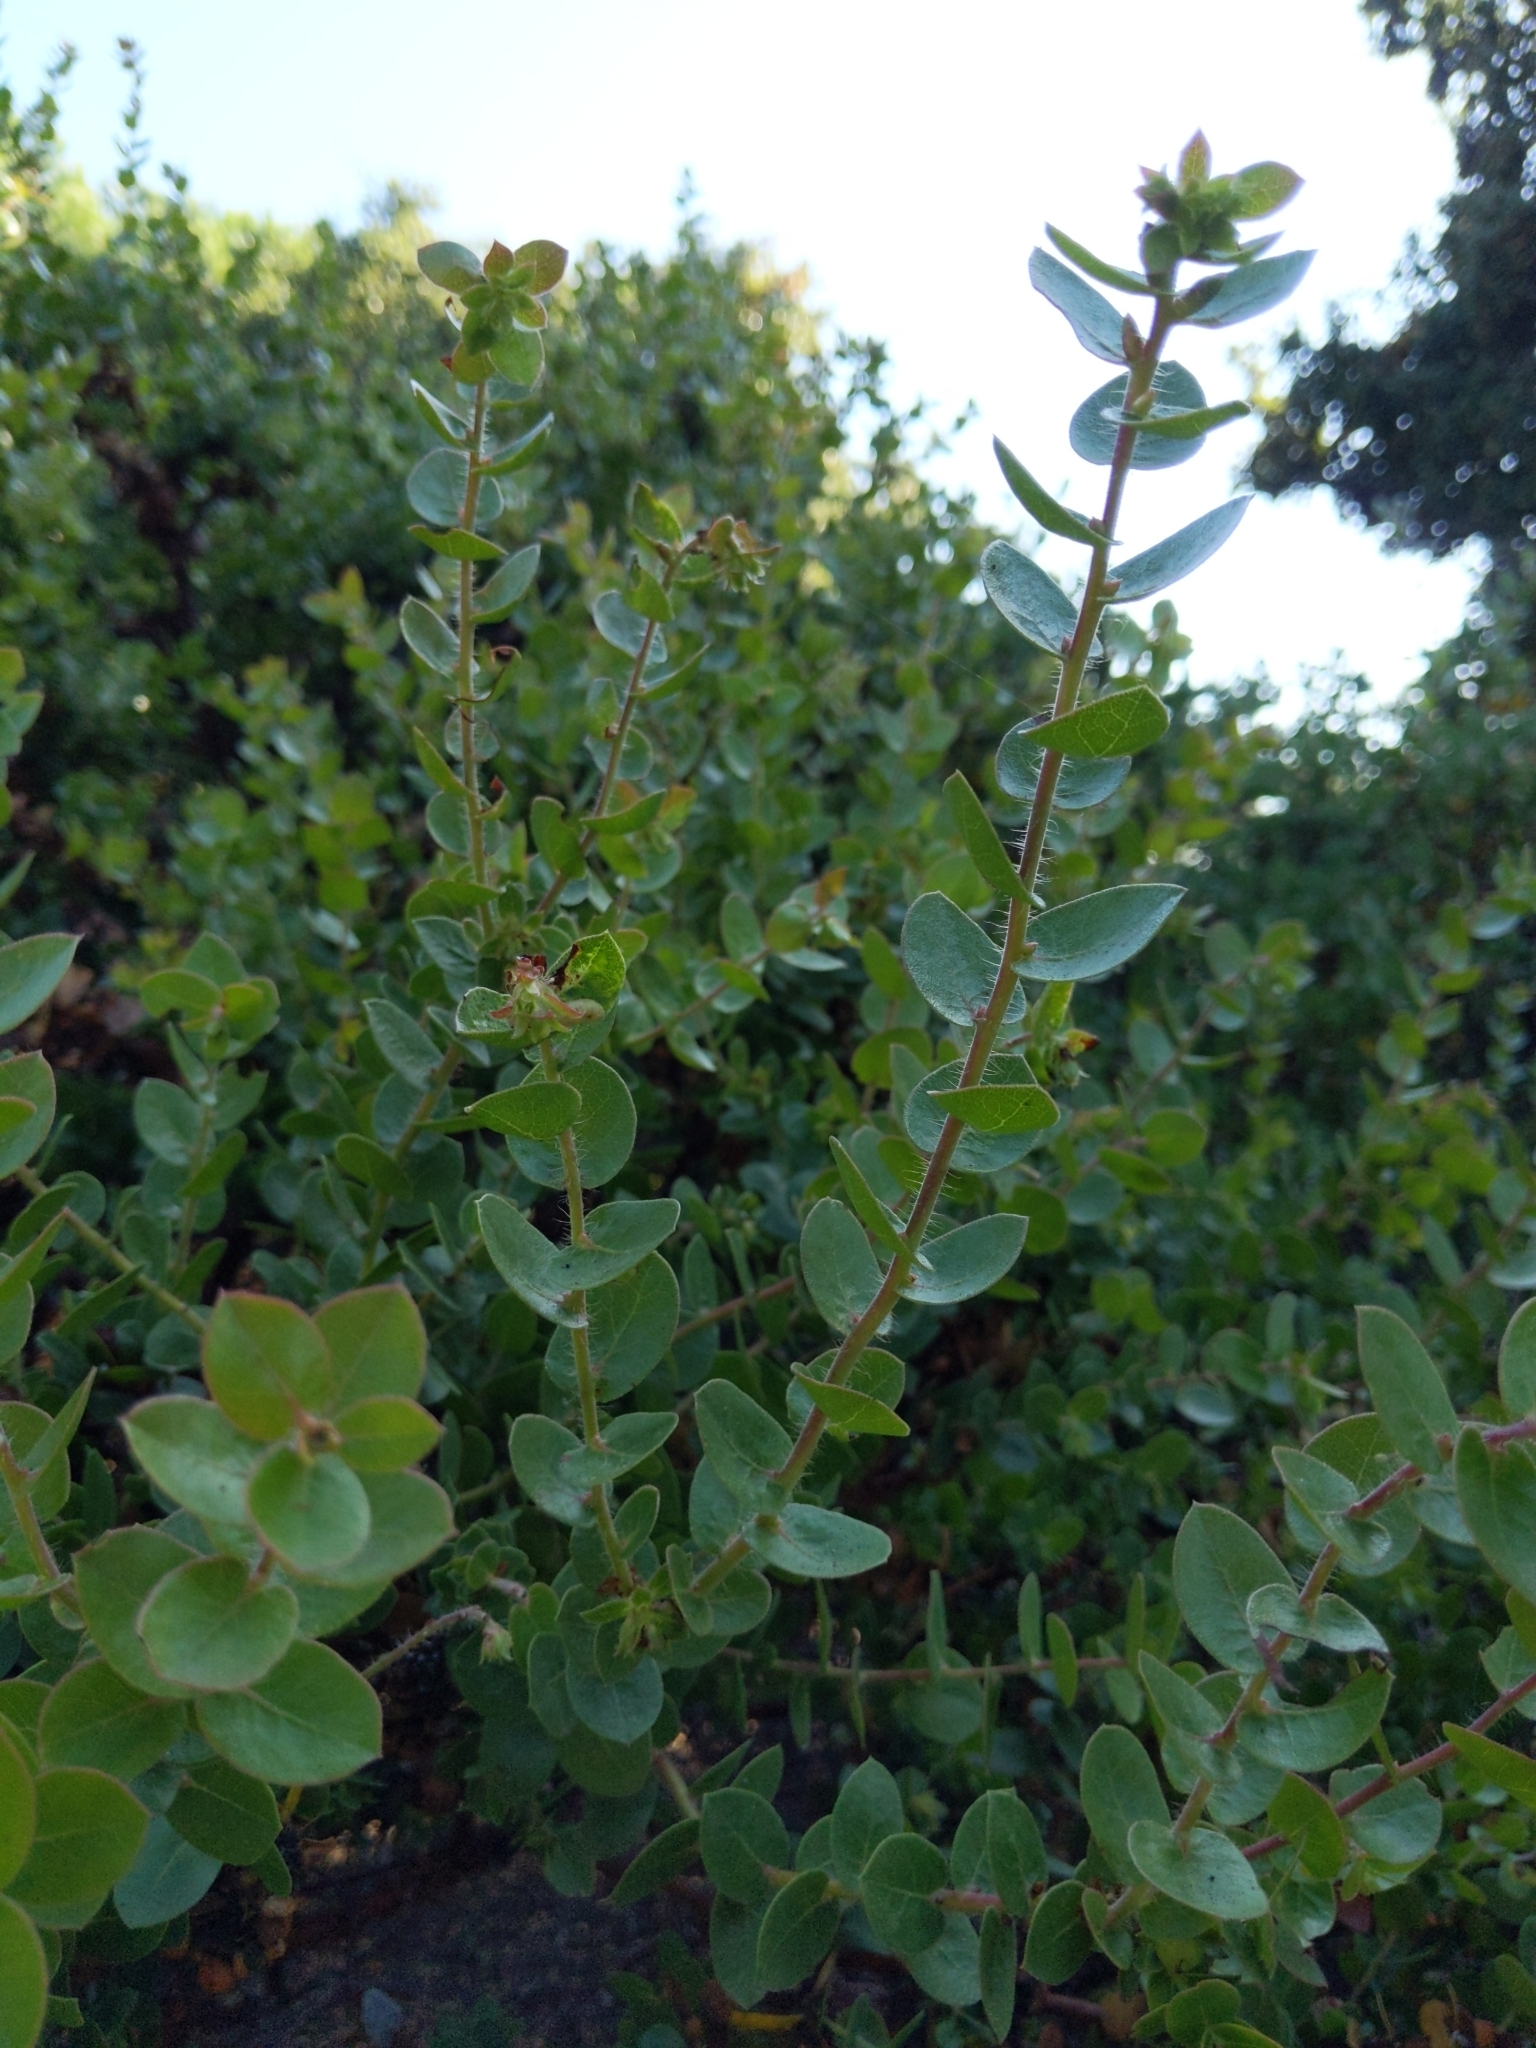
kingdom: Plantae
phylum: Tracheophyta
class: Magnoliopsida
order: Ericales
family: Ericaceae
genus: Arctostaphylos
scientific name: Arctostaphylos purissima
